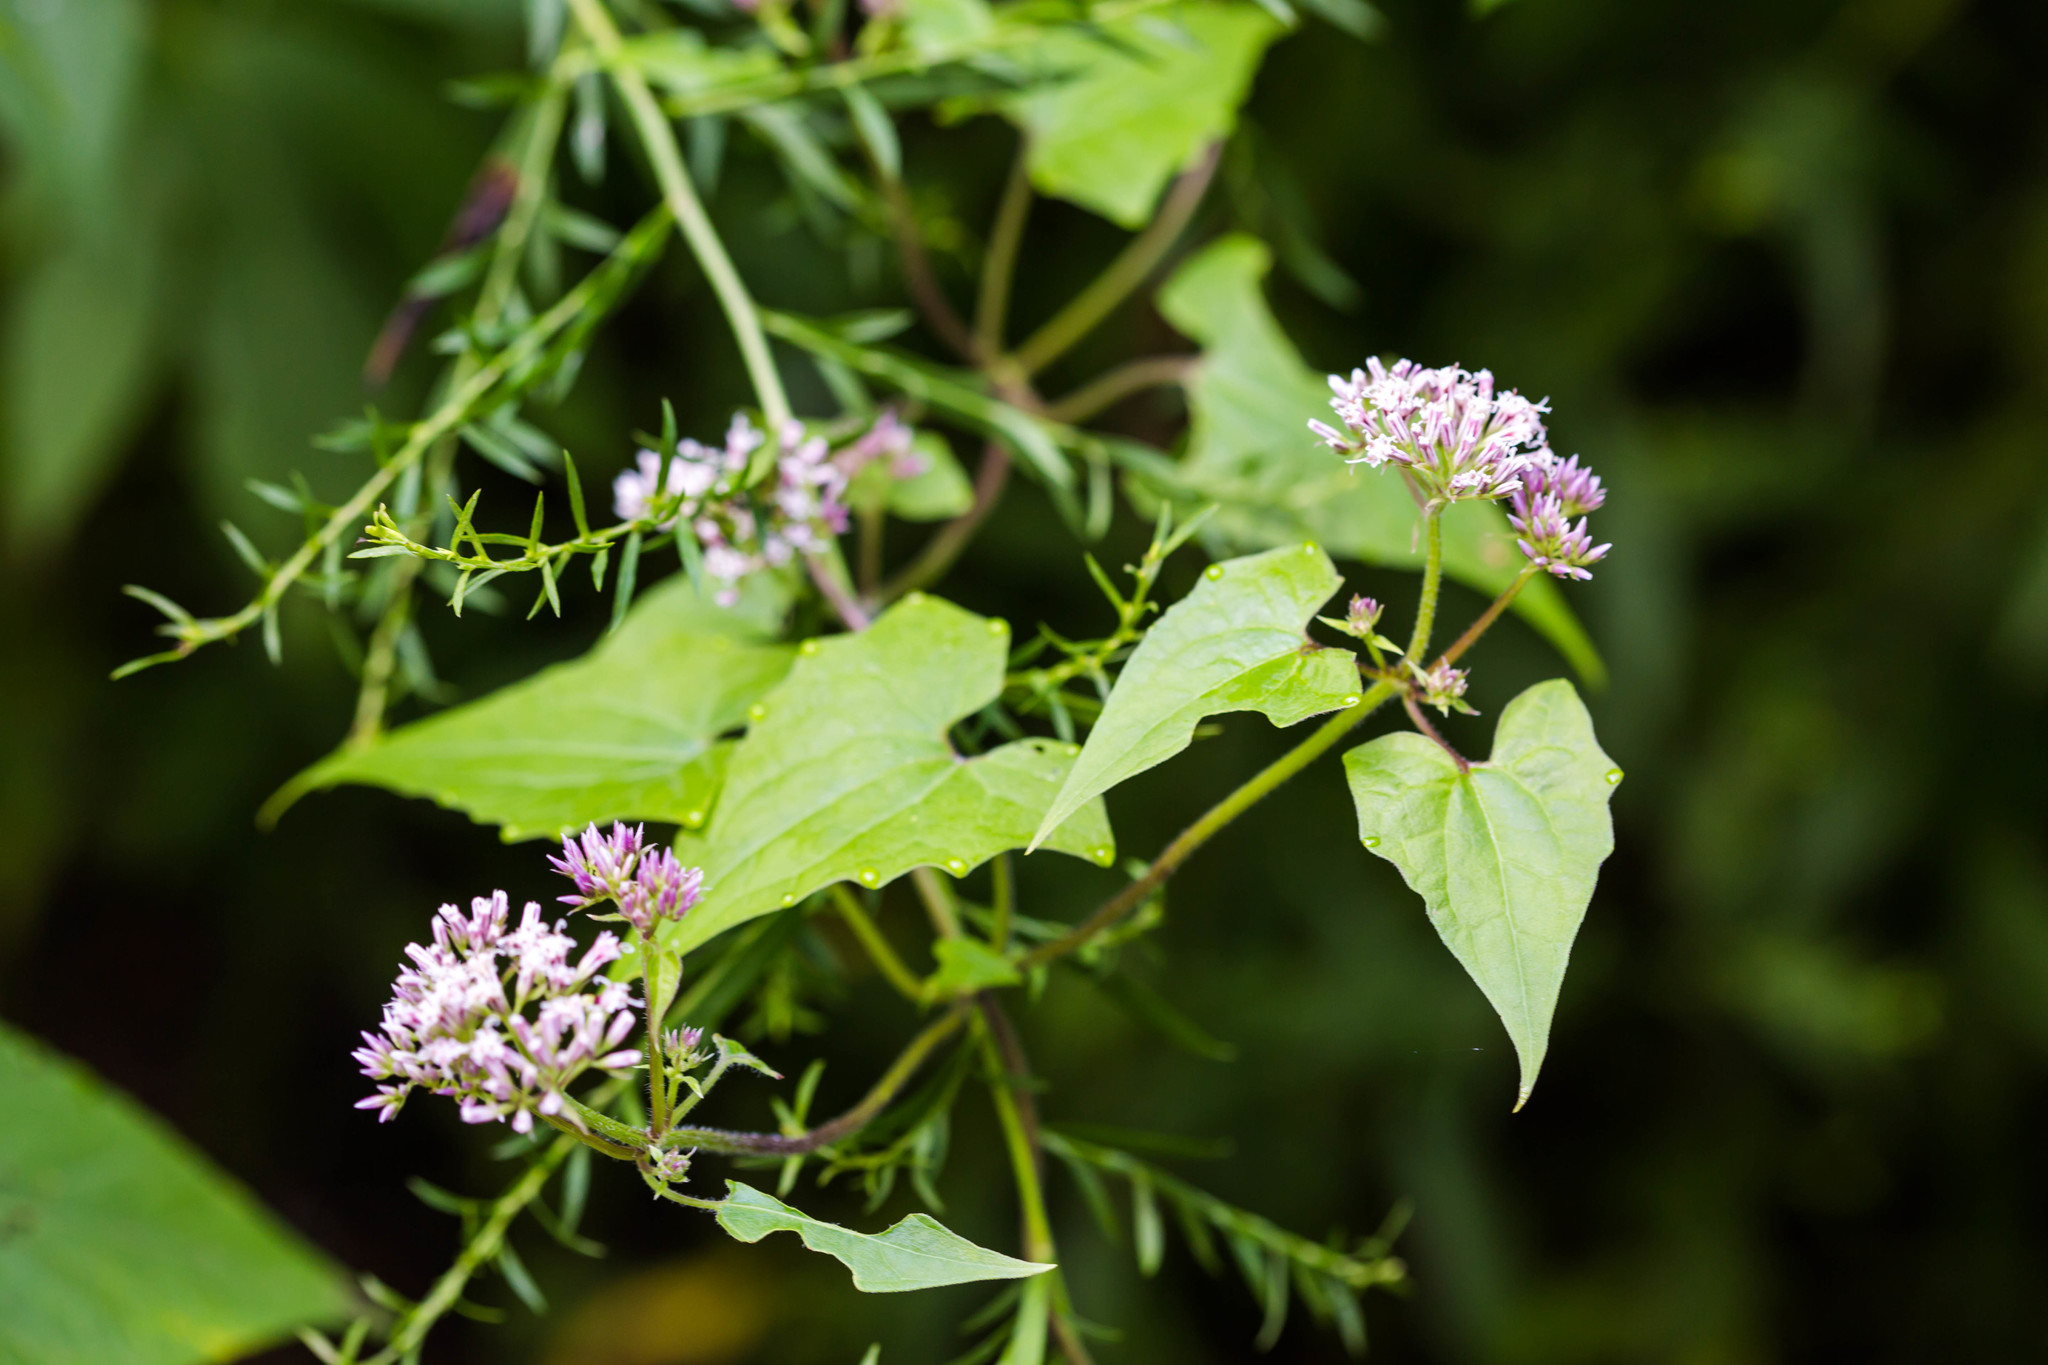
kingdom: Plantae
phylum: Tracheophyta
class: Magnoliopsida
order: Asterales
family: Asteraceae
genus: Mikania
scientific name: Mikania scandens
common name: Climbing hempvine
